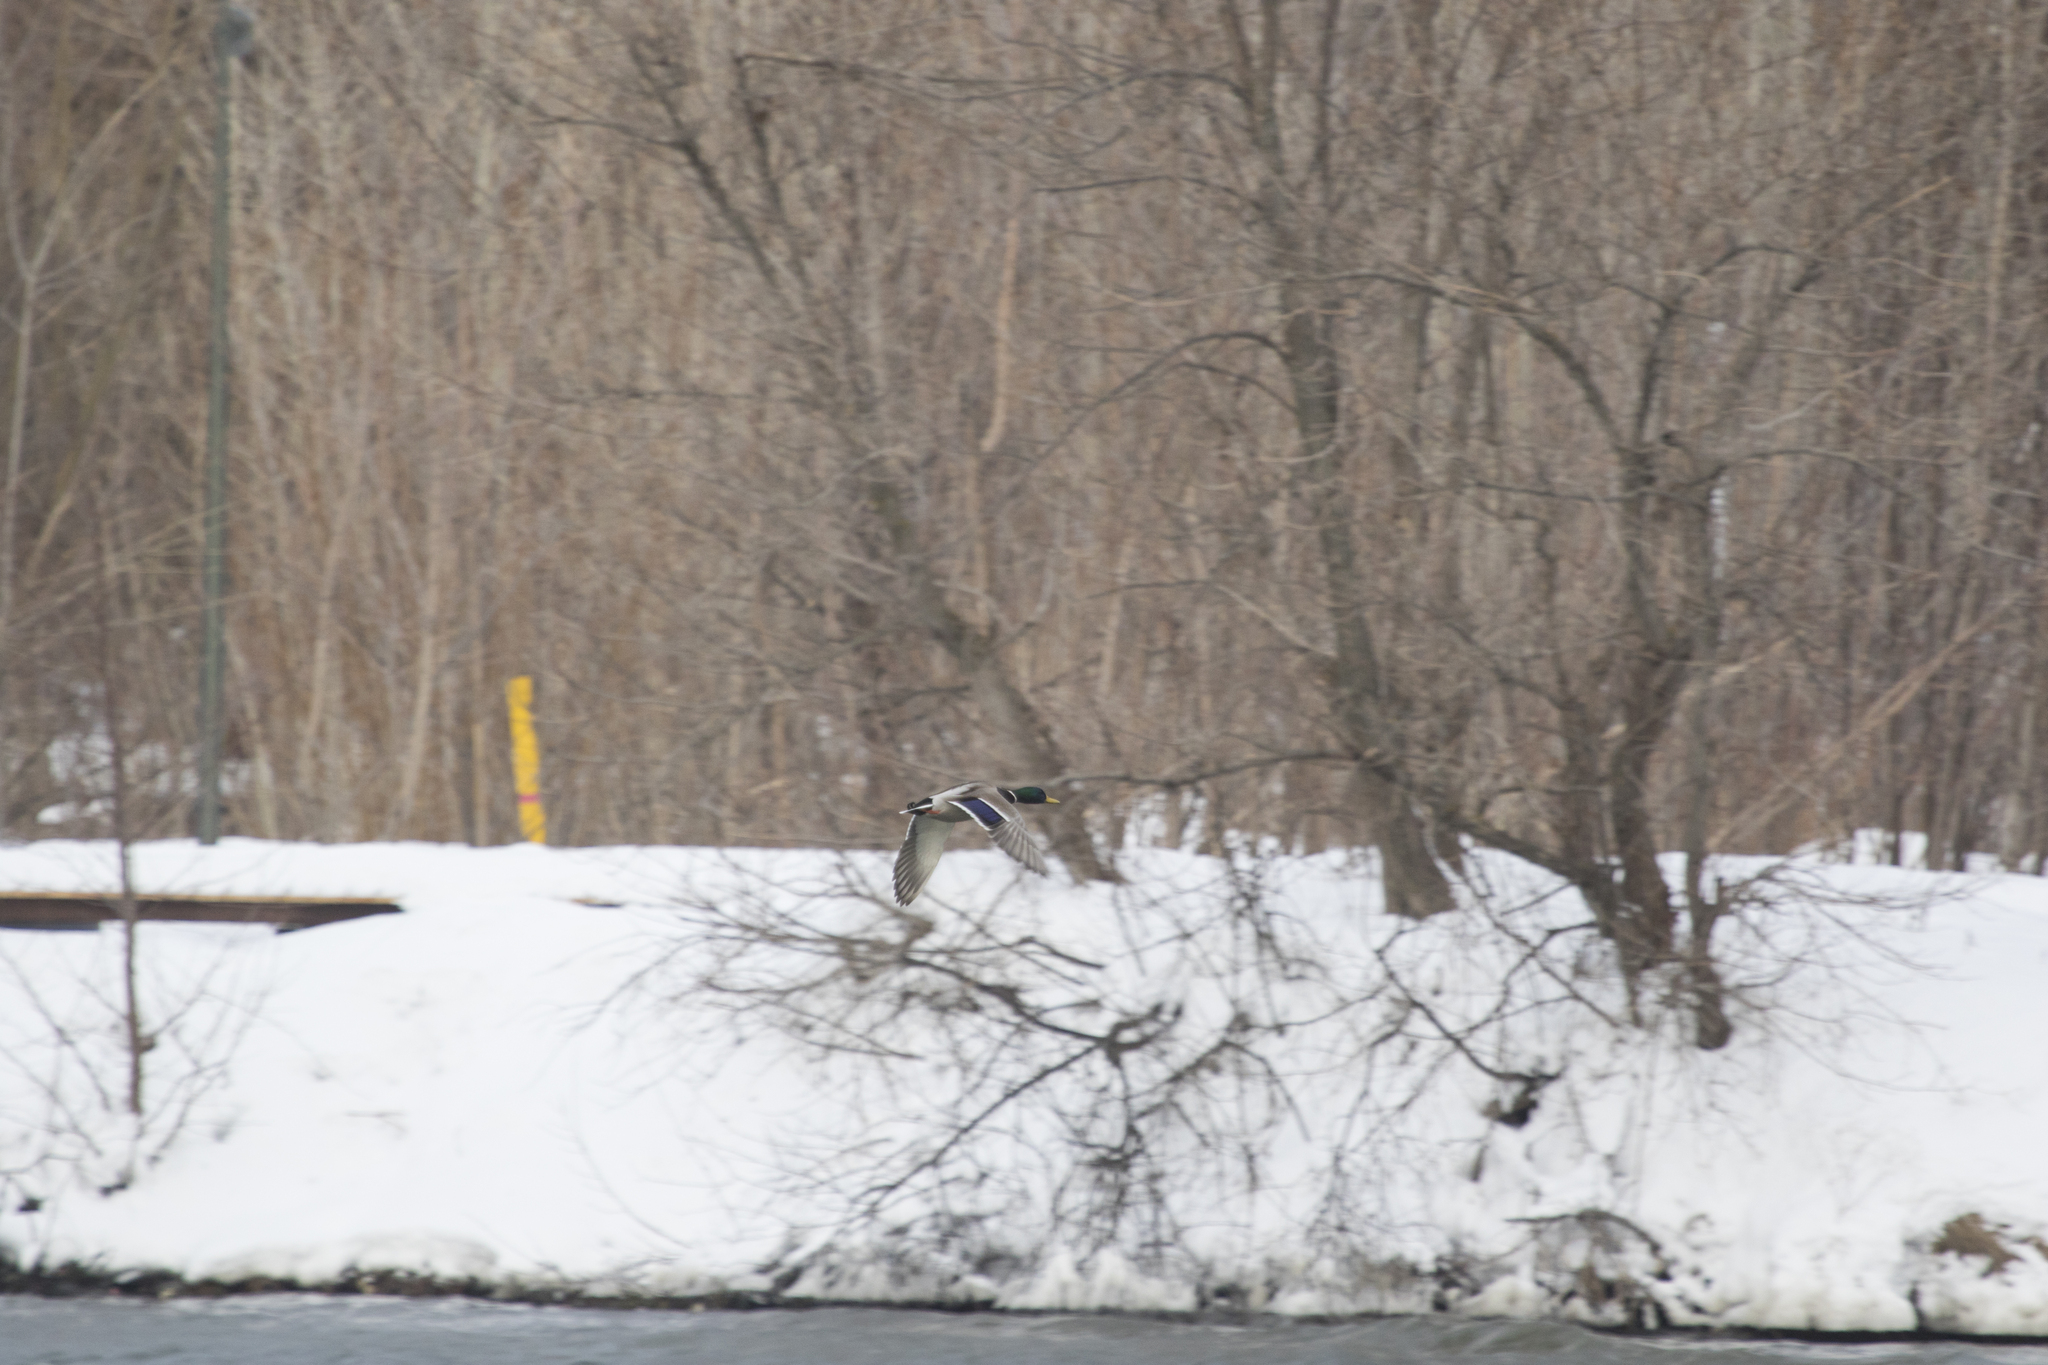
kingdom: Animalia
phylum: Chordata
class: Aves
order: Anseriformes
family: Anatidae
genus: Anas
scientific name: Anas platyrhynchos
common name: Mallard
